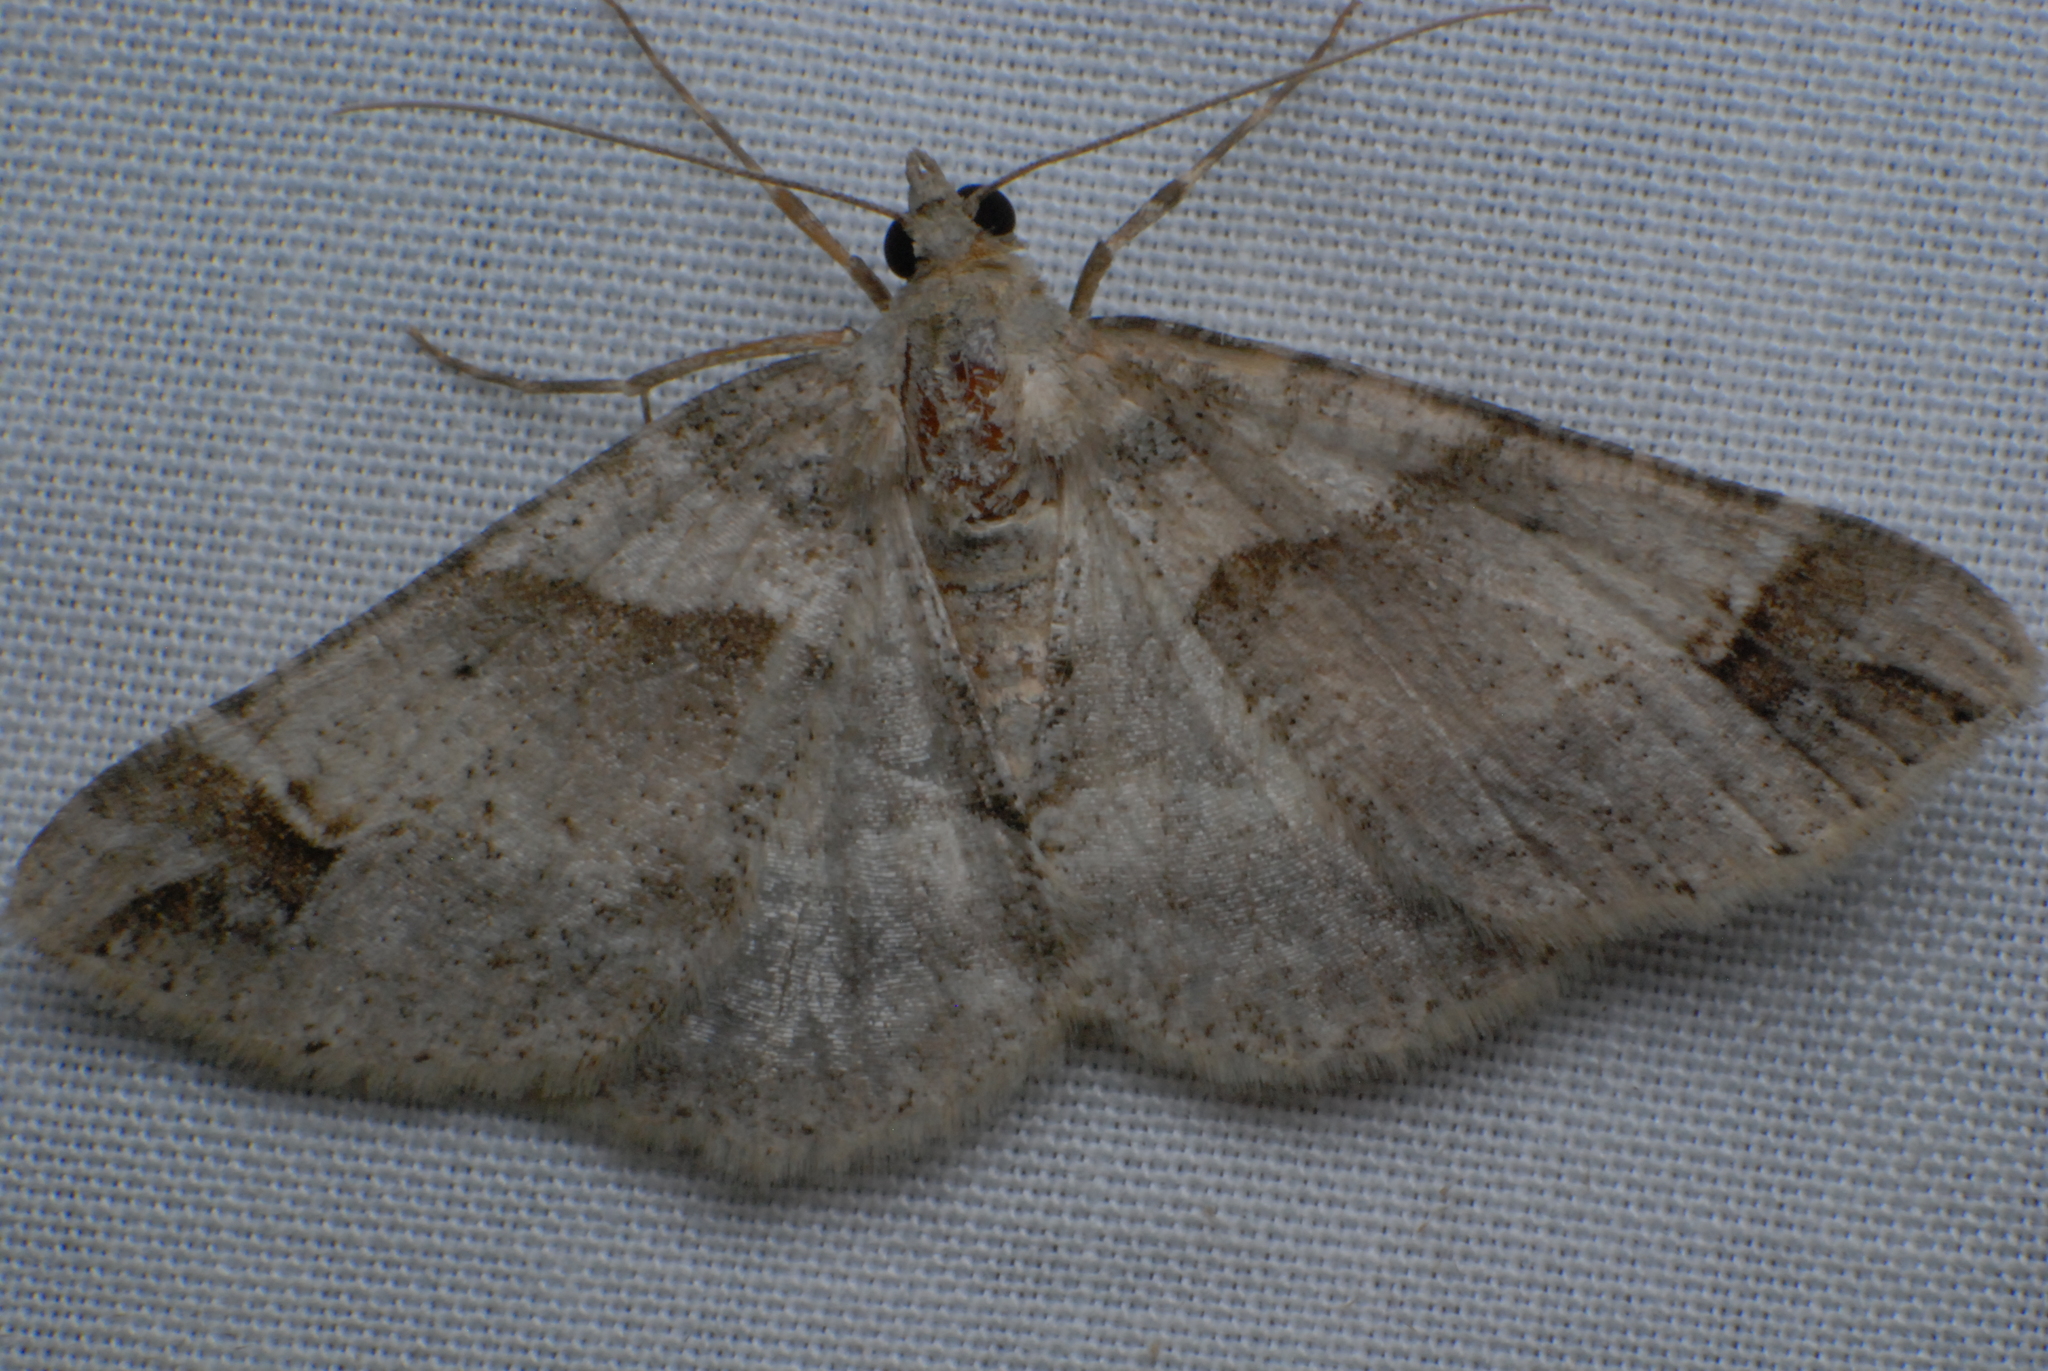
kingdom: Animalia
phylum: Arthropoda
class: Insecta
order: Lepidoptera
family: Geometridae
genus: Syneora
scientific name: Syneora hemeropa
